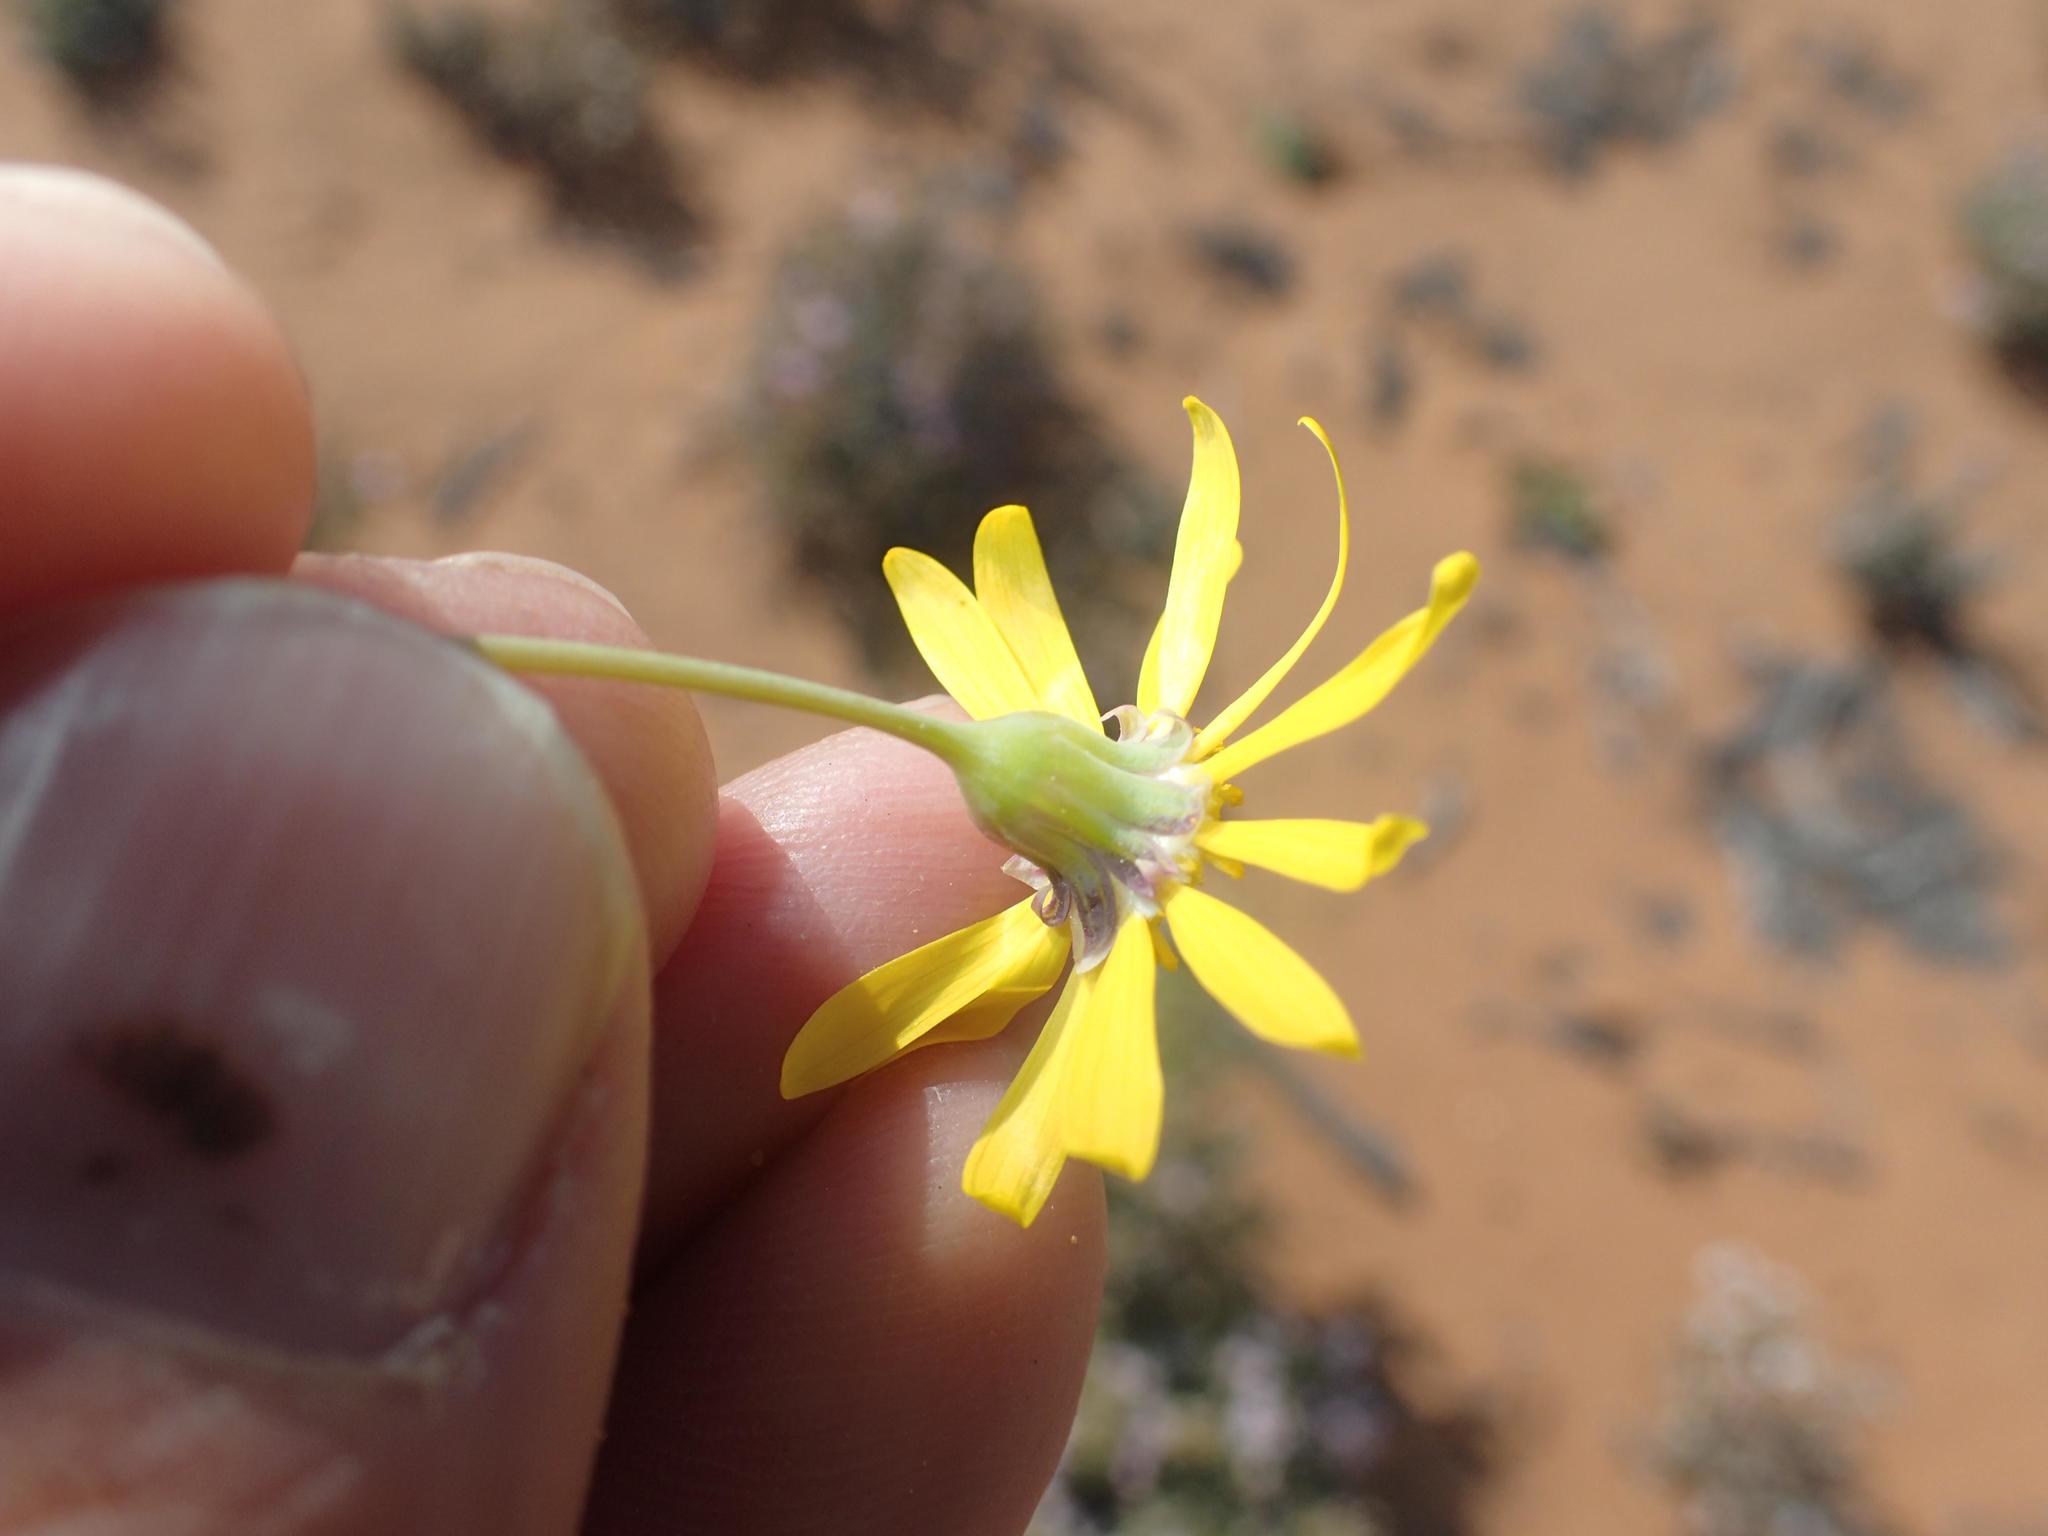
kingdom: Plantae
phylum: Tracheophyta
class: Magnoliopsida
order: Asterales
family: Asteraceae
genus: Crassothonna
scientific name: Crassothonna sedifolia
